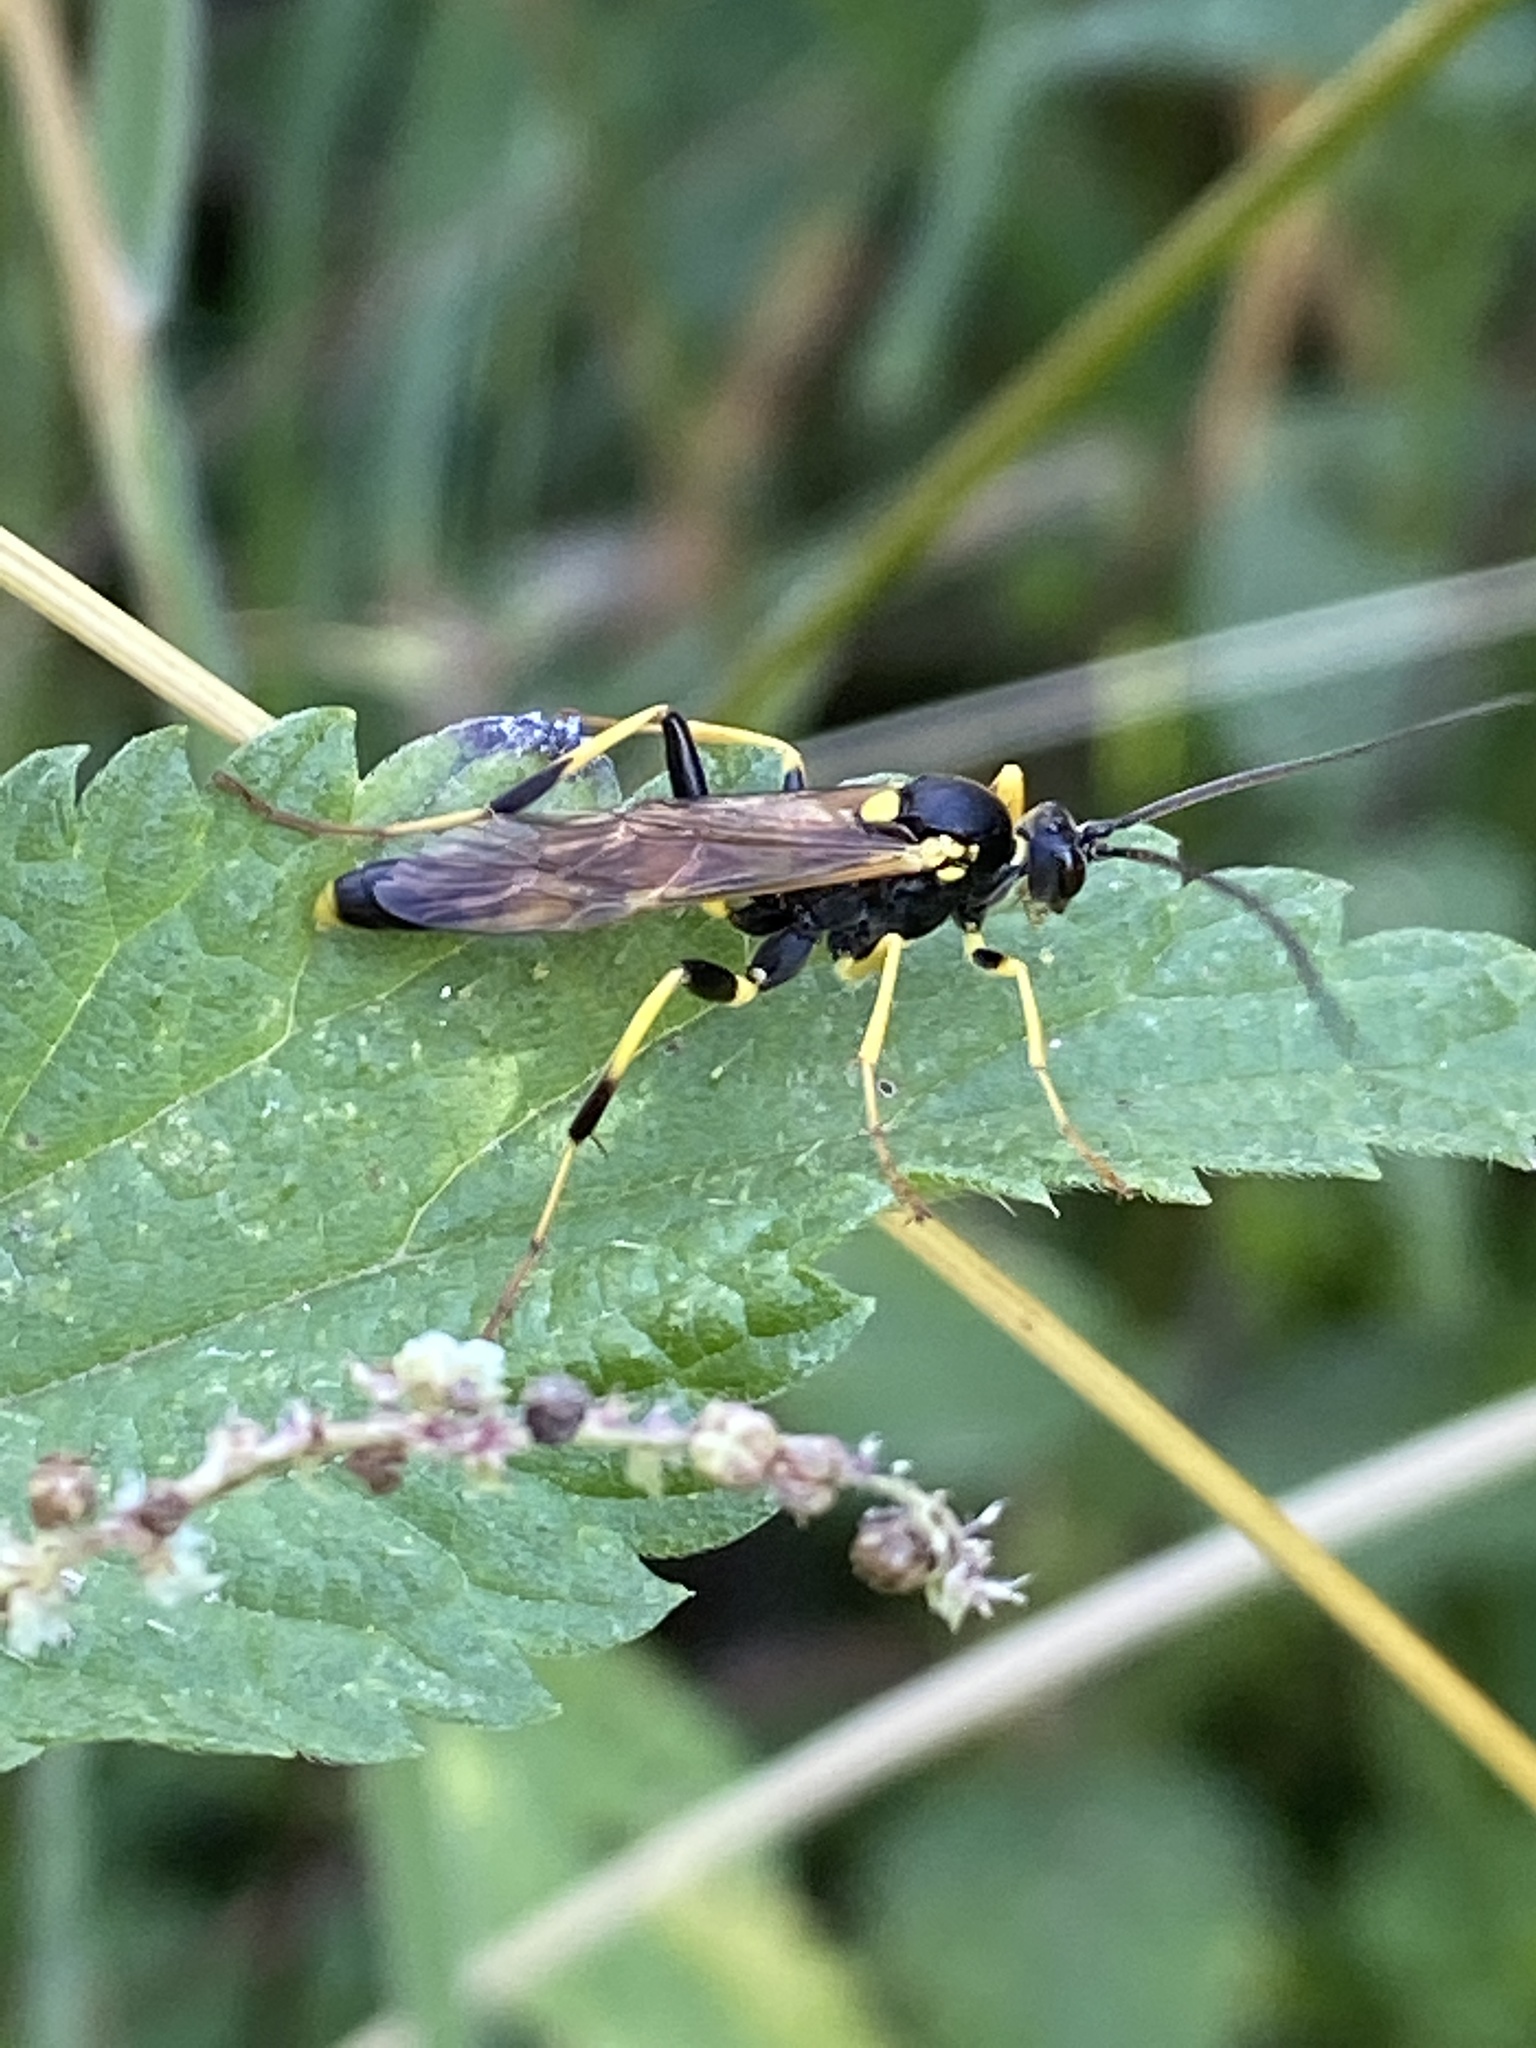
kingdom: Animalia
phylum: Arthropoda
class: Insecta
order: Hymenoptera
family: Ichneumonidae
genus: Amblyteles
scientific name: Amblyteles armatorius
